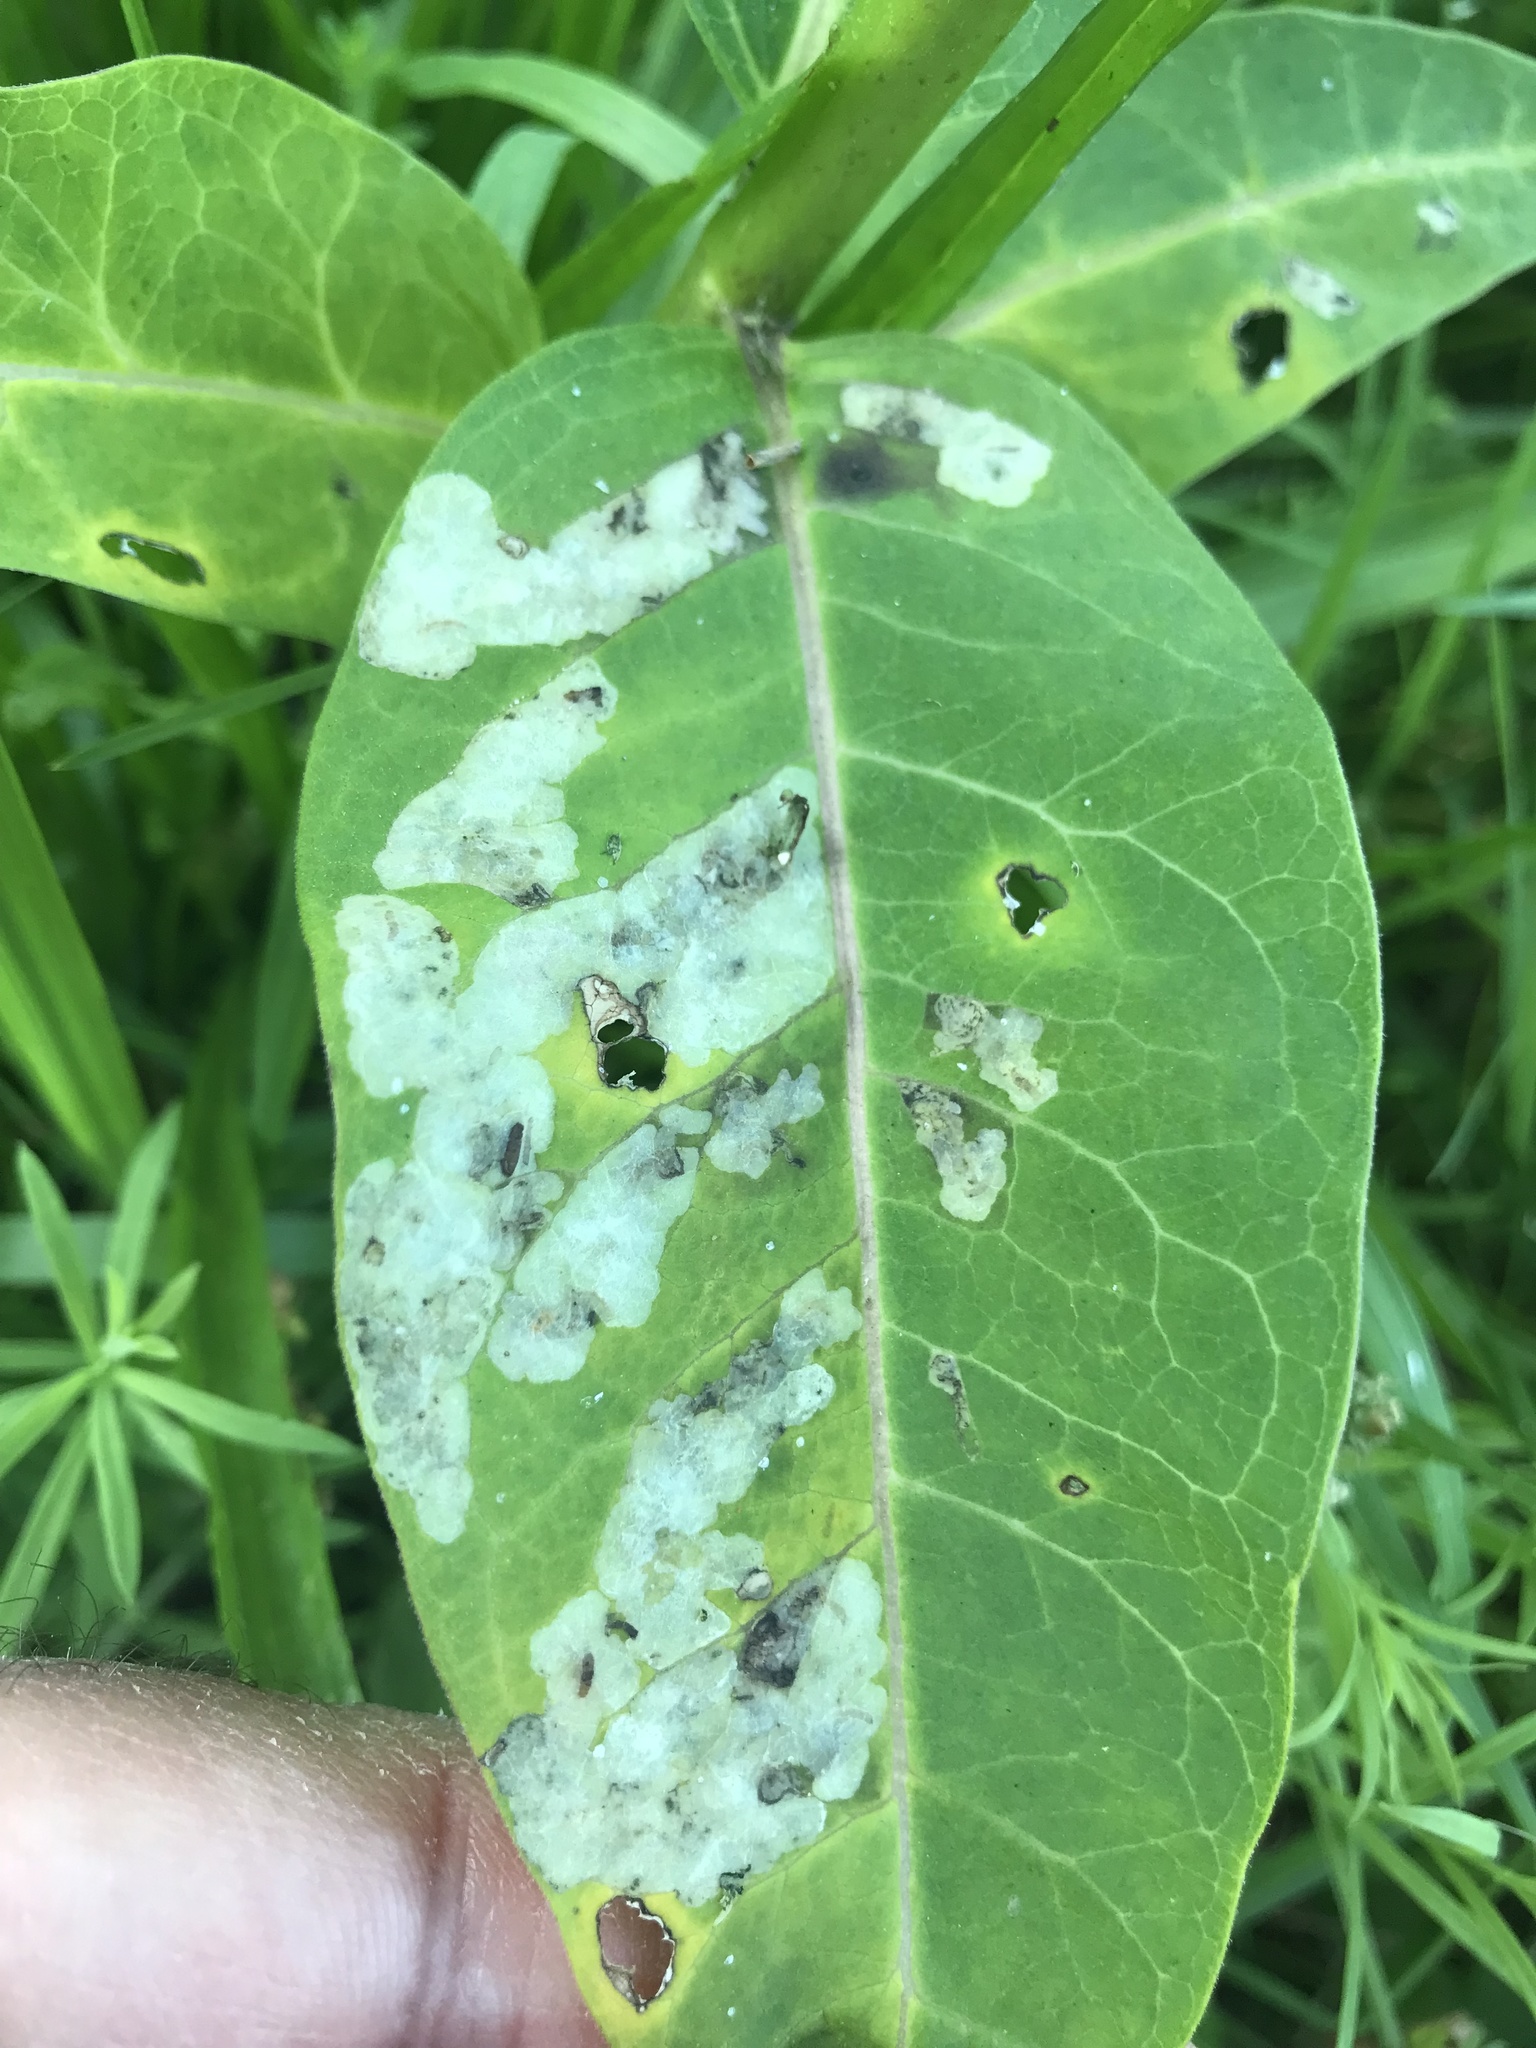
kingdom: Animalia
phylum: Arthropoda
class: Insecta
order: Diptera
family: Agromyzidae
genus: Liriomyza
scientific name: Liriomyza asclepiadis
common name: Milkweed leaf-miner fly
